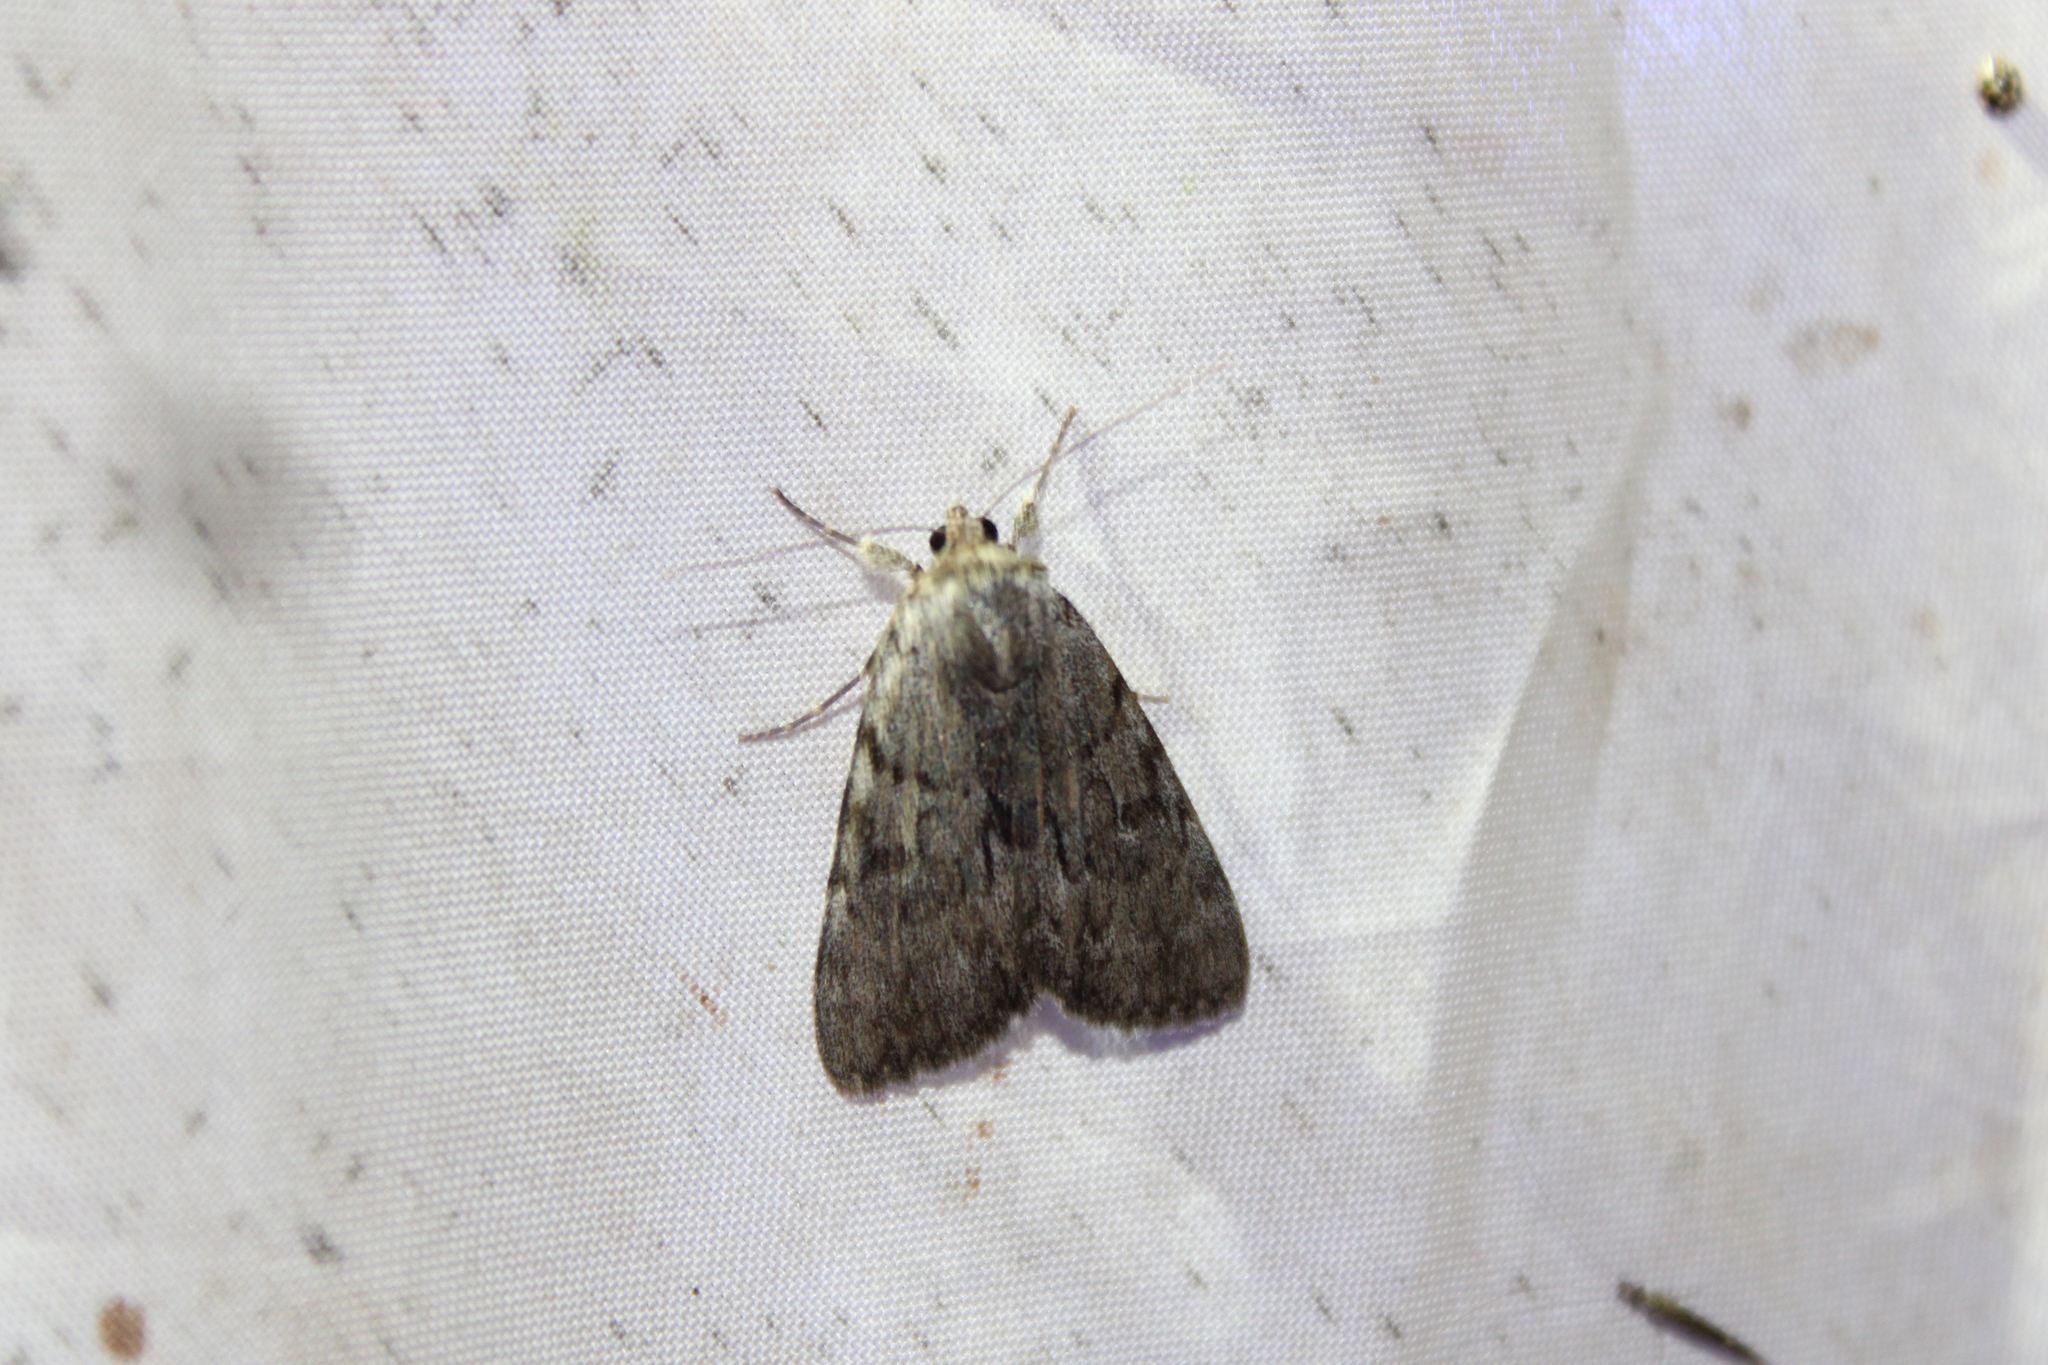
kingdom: Animalia
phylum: Arthropoda
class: Insecta
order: Lepidoptera
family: Erebidae
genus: Catocala
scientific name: Catocala sordida
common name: Sordid underwing
